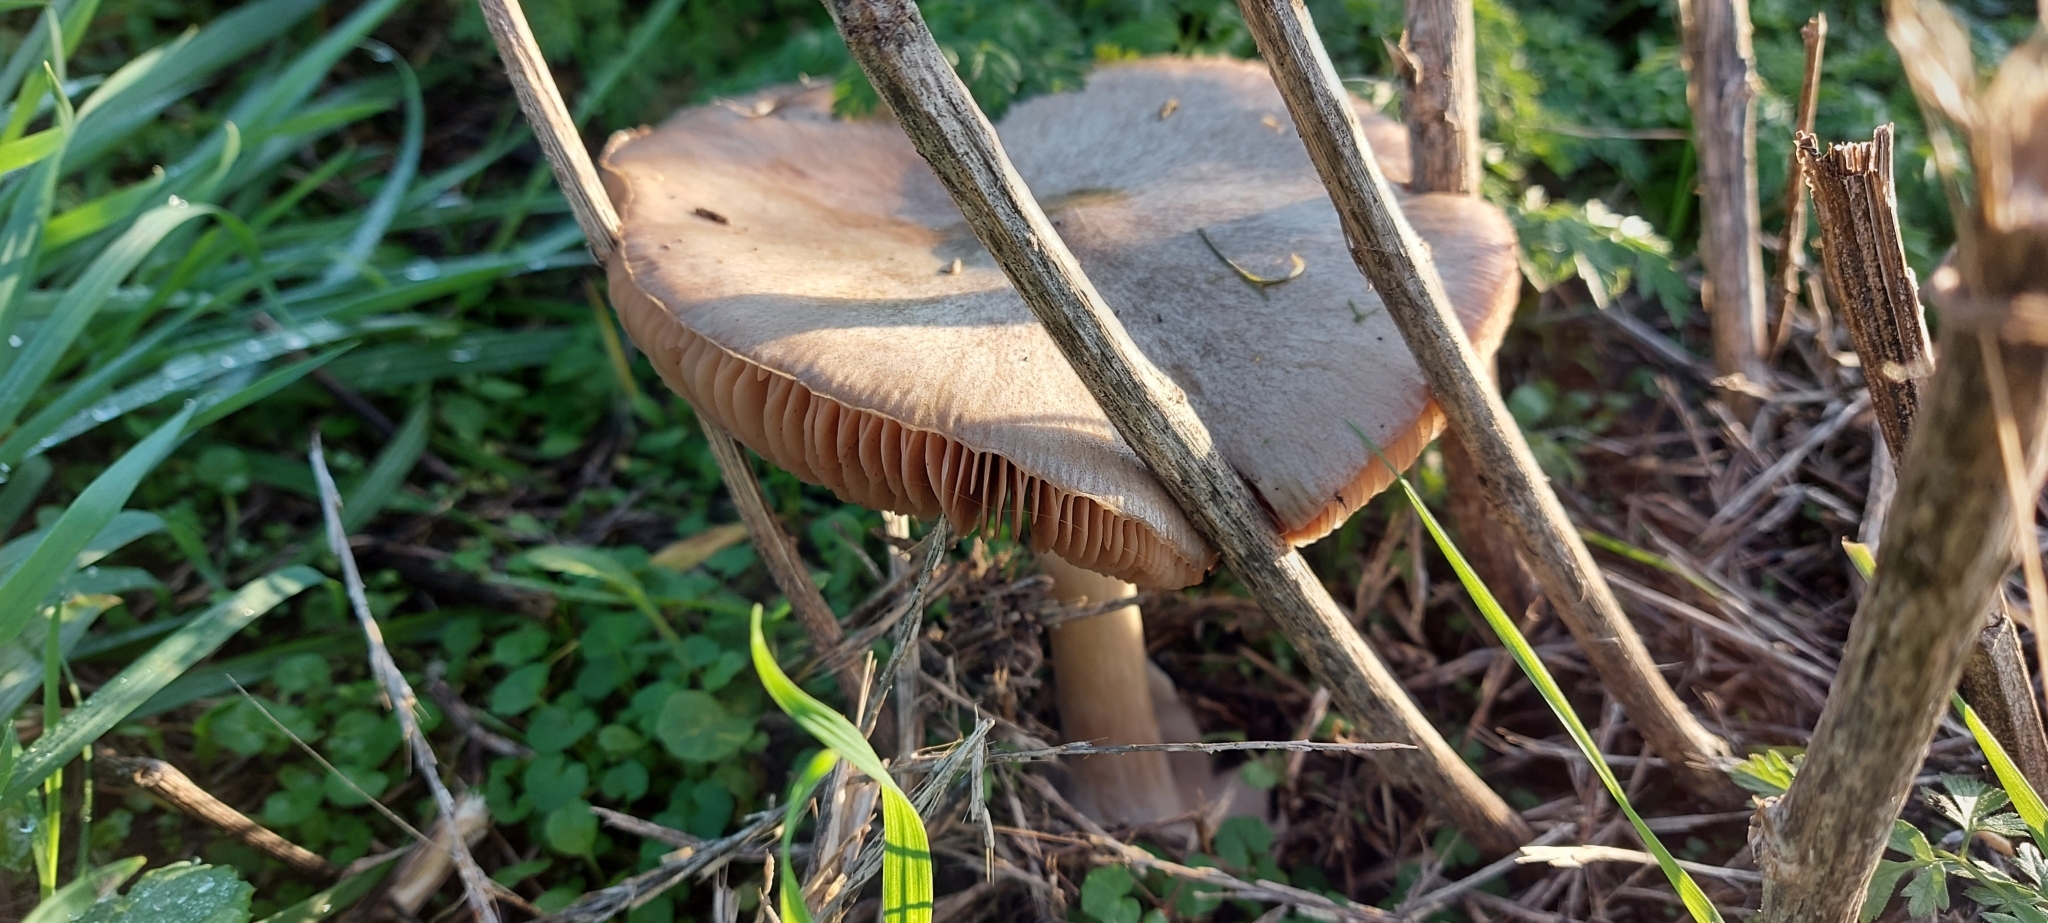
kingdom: Fungi
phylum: Basidiomycota
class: Agaricomycetes
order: Agaricales
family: Pluteaceae
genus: Volvopluteus
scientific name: Volvopluteus gloiocephalus
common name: Stubble rosegill
